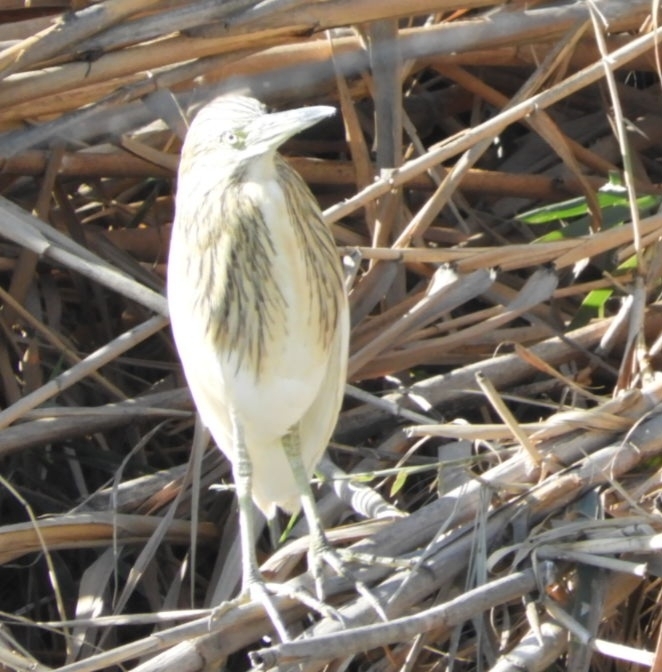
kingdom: Animalia
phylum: Chordata
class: Aves
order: Pelecaniformes
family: Ardeidae
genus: Ardeola
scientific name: Ardeola ralloides
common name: Squacco heron
